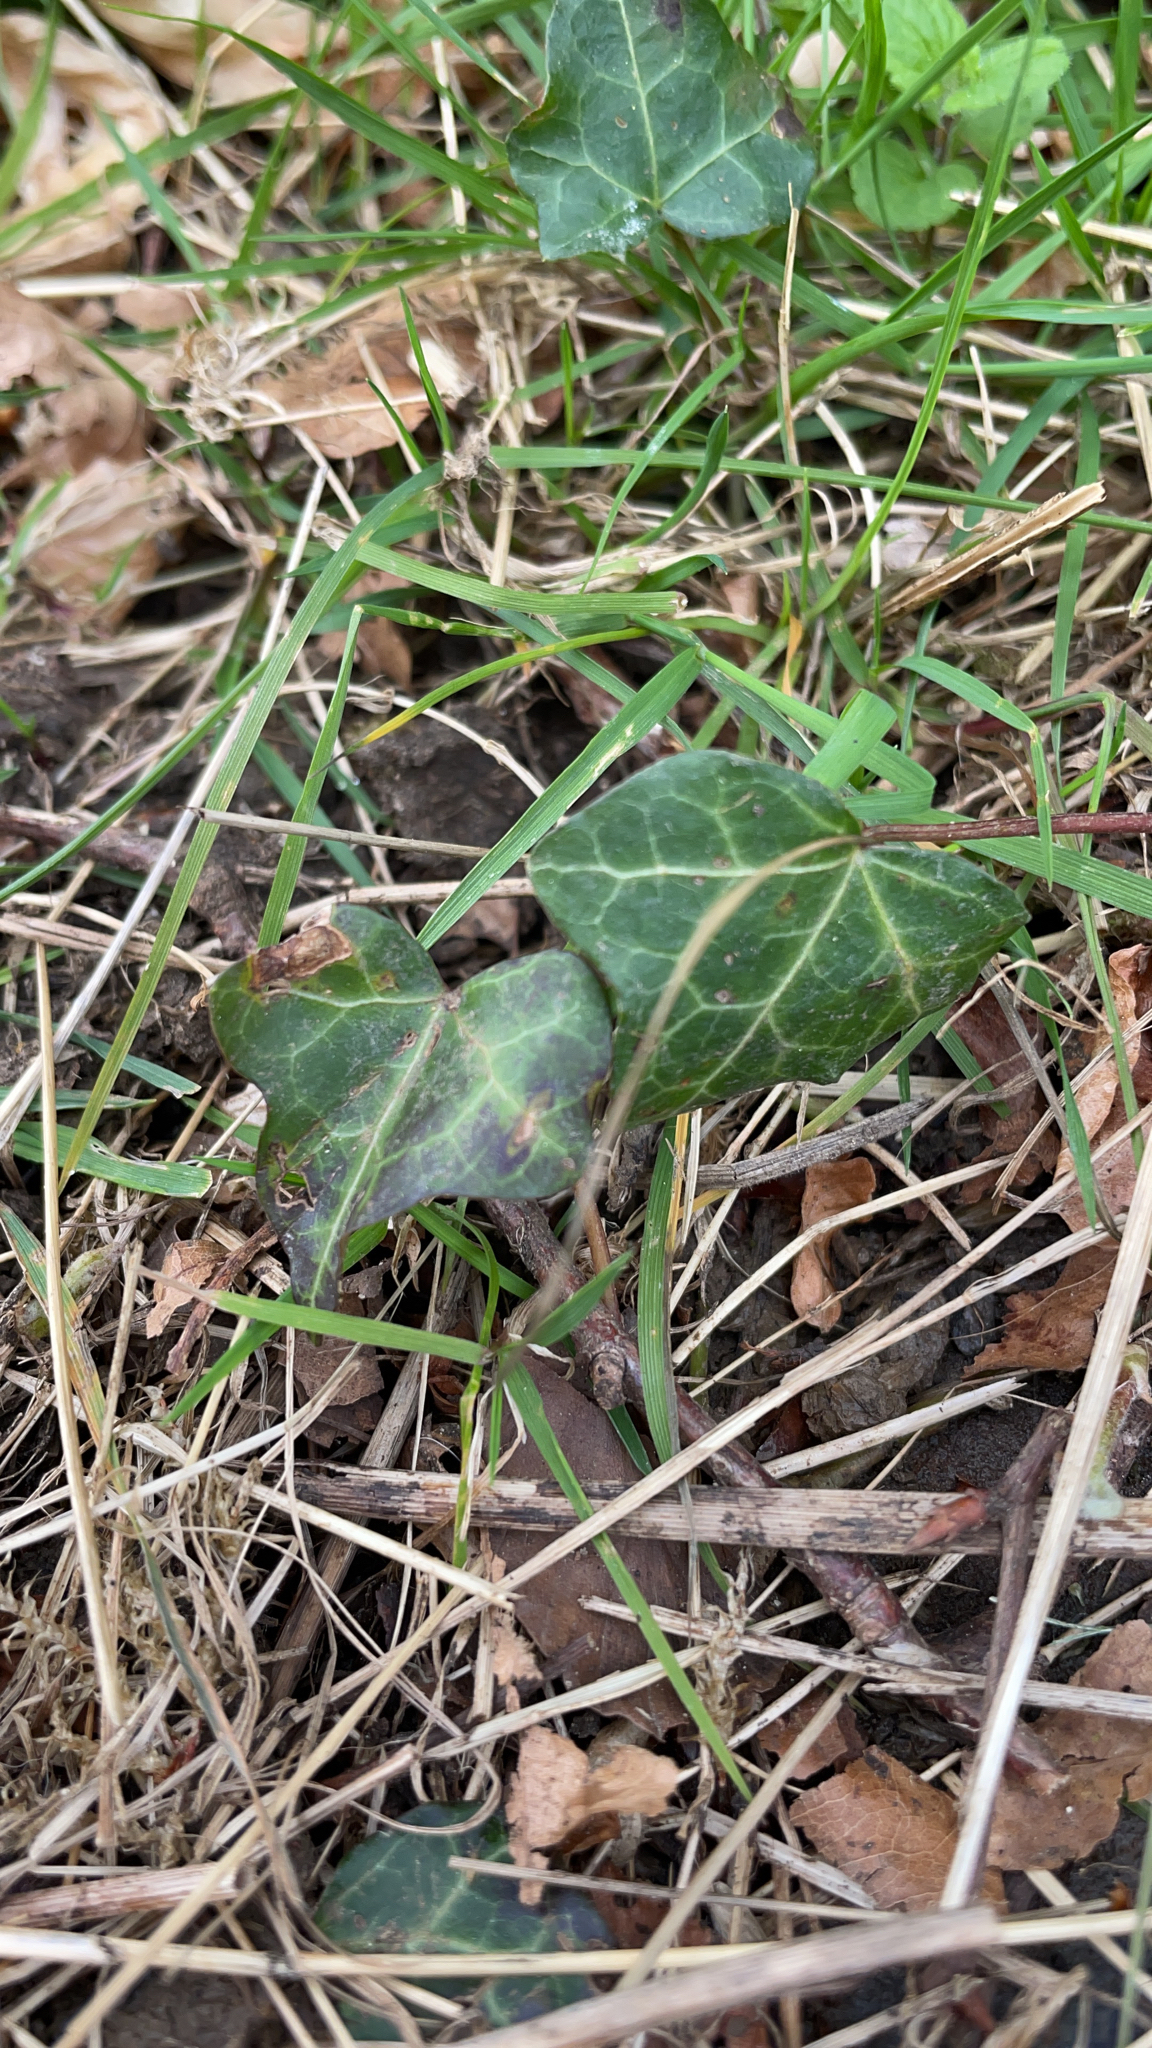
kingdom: Plantae
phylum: Tracheophyta
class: Magnoliopsida
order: Apiales
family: Araliaceae
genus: Hedera
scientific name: Hedera helix
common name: Ivy
